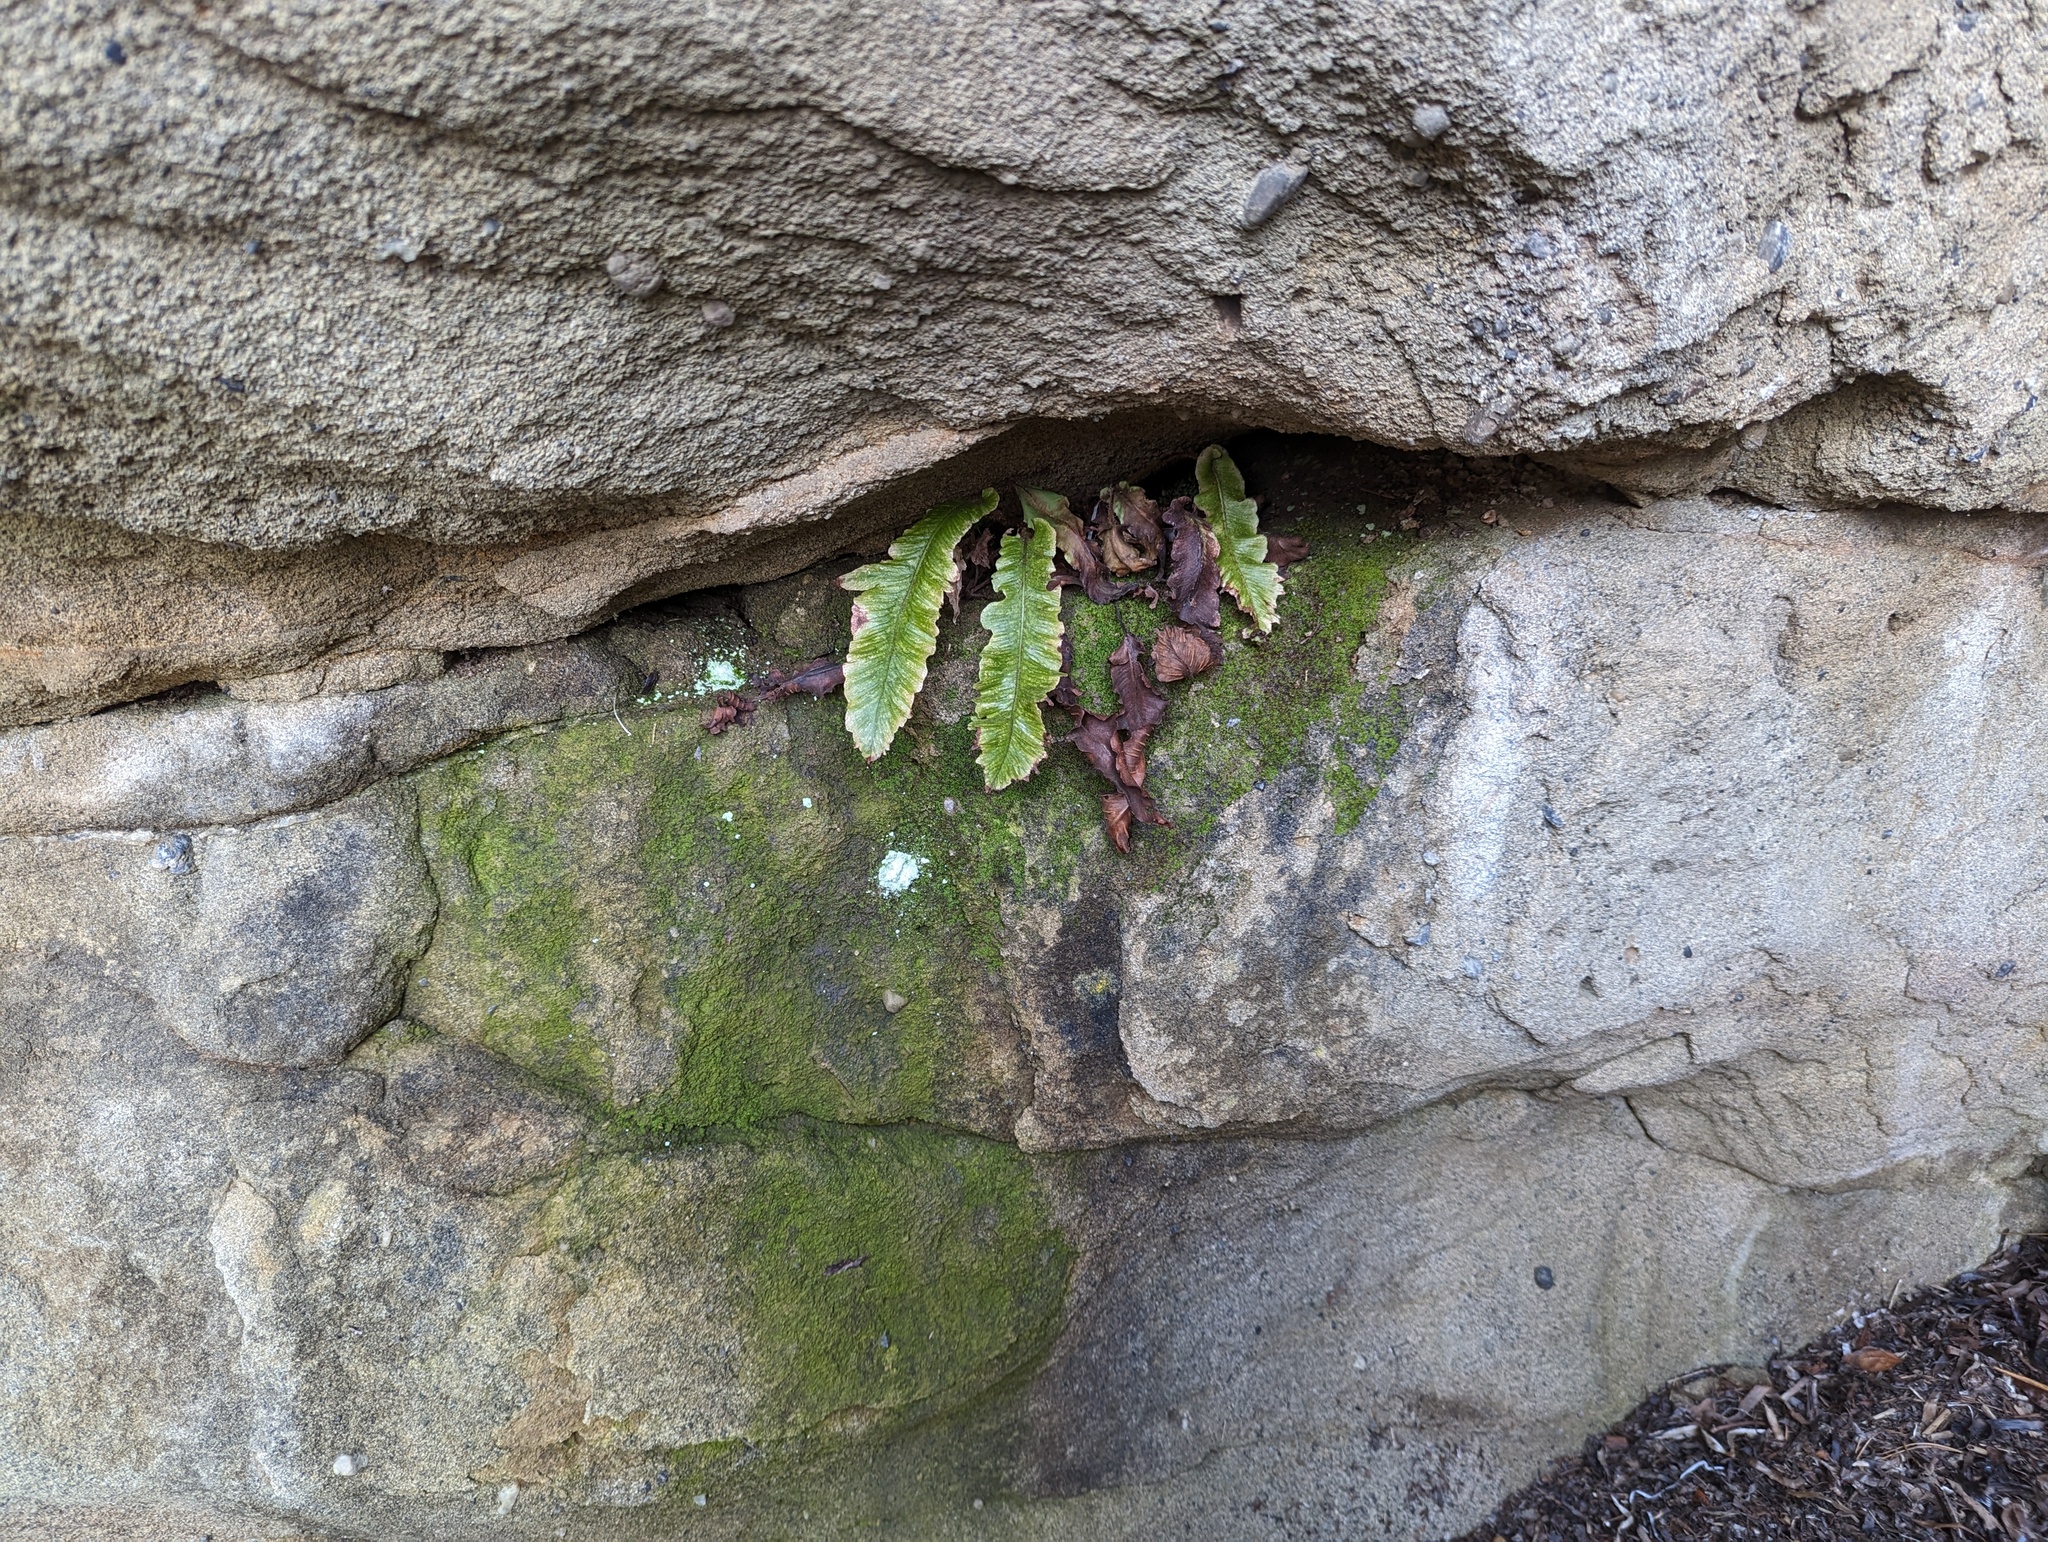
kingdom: Plantae
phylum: Tracheophyta
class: Polypodiopsida
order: Polypodiales
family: Aspleniaceae
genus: Asplenium
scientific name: Asplenium scolopendrium
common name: Hart's-tongue fern
